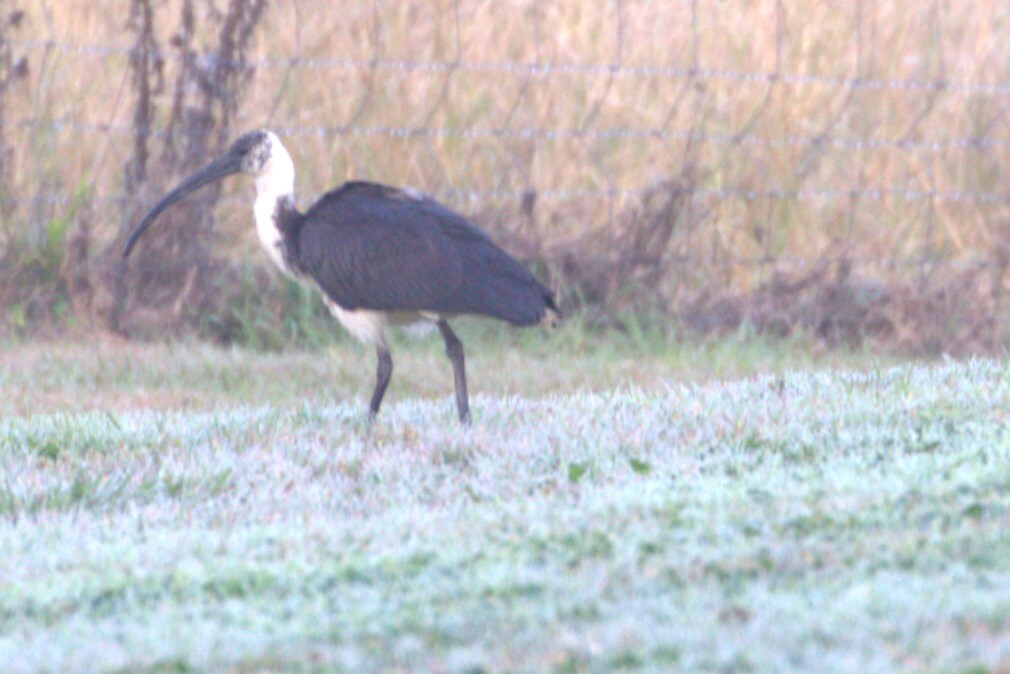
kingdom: Animalia
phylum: Chordata
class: Aves
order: Pelecaniformes
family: Threskiornithidae
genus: Threskiornis
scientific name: Threskiornis spinicollis
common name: Straw-necked ibis
